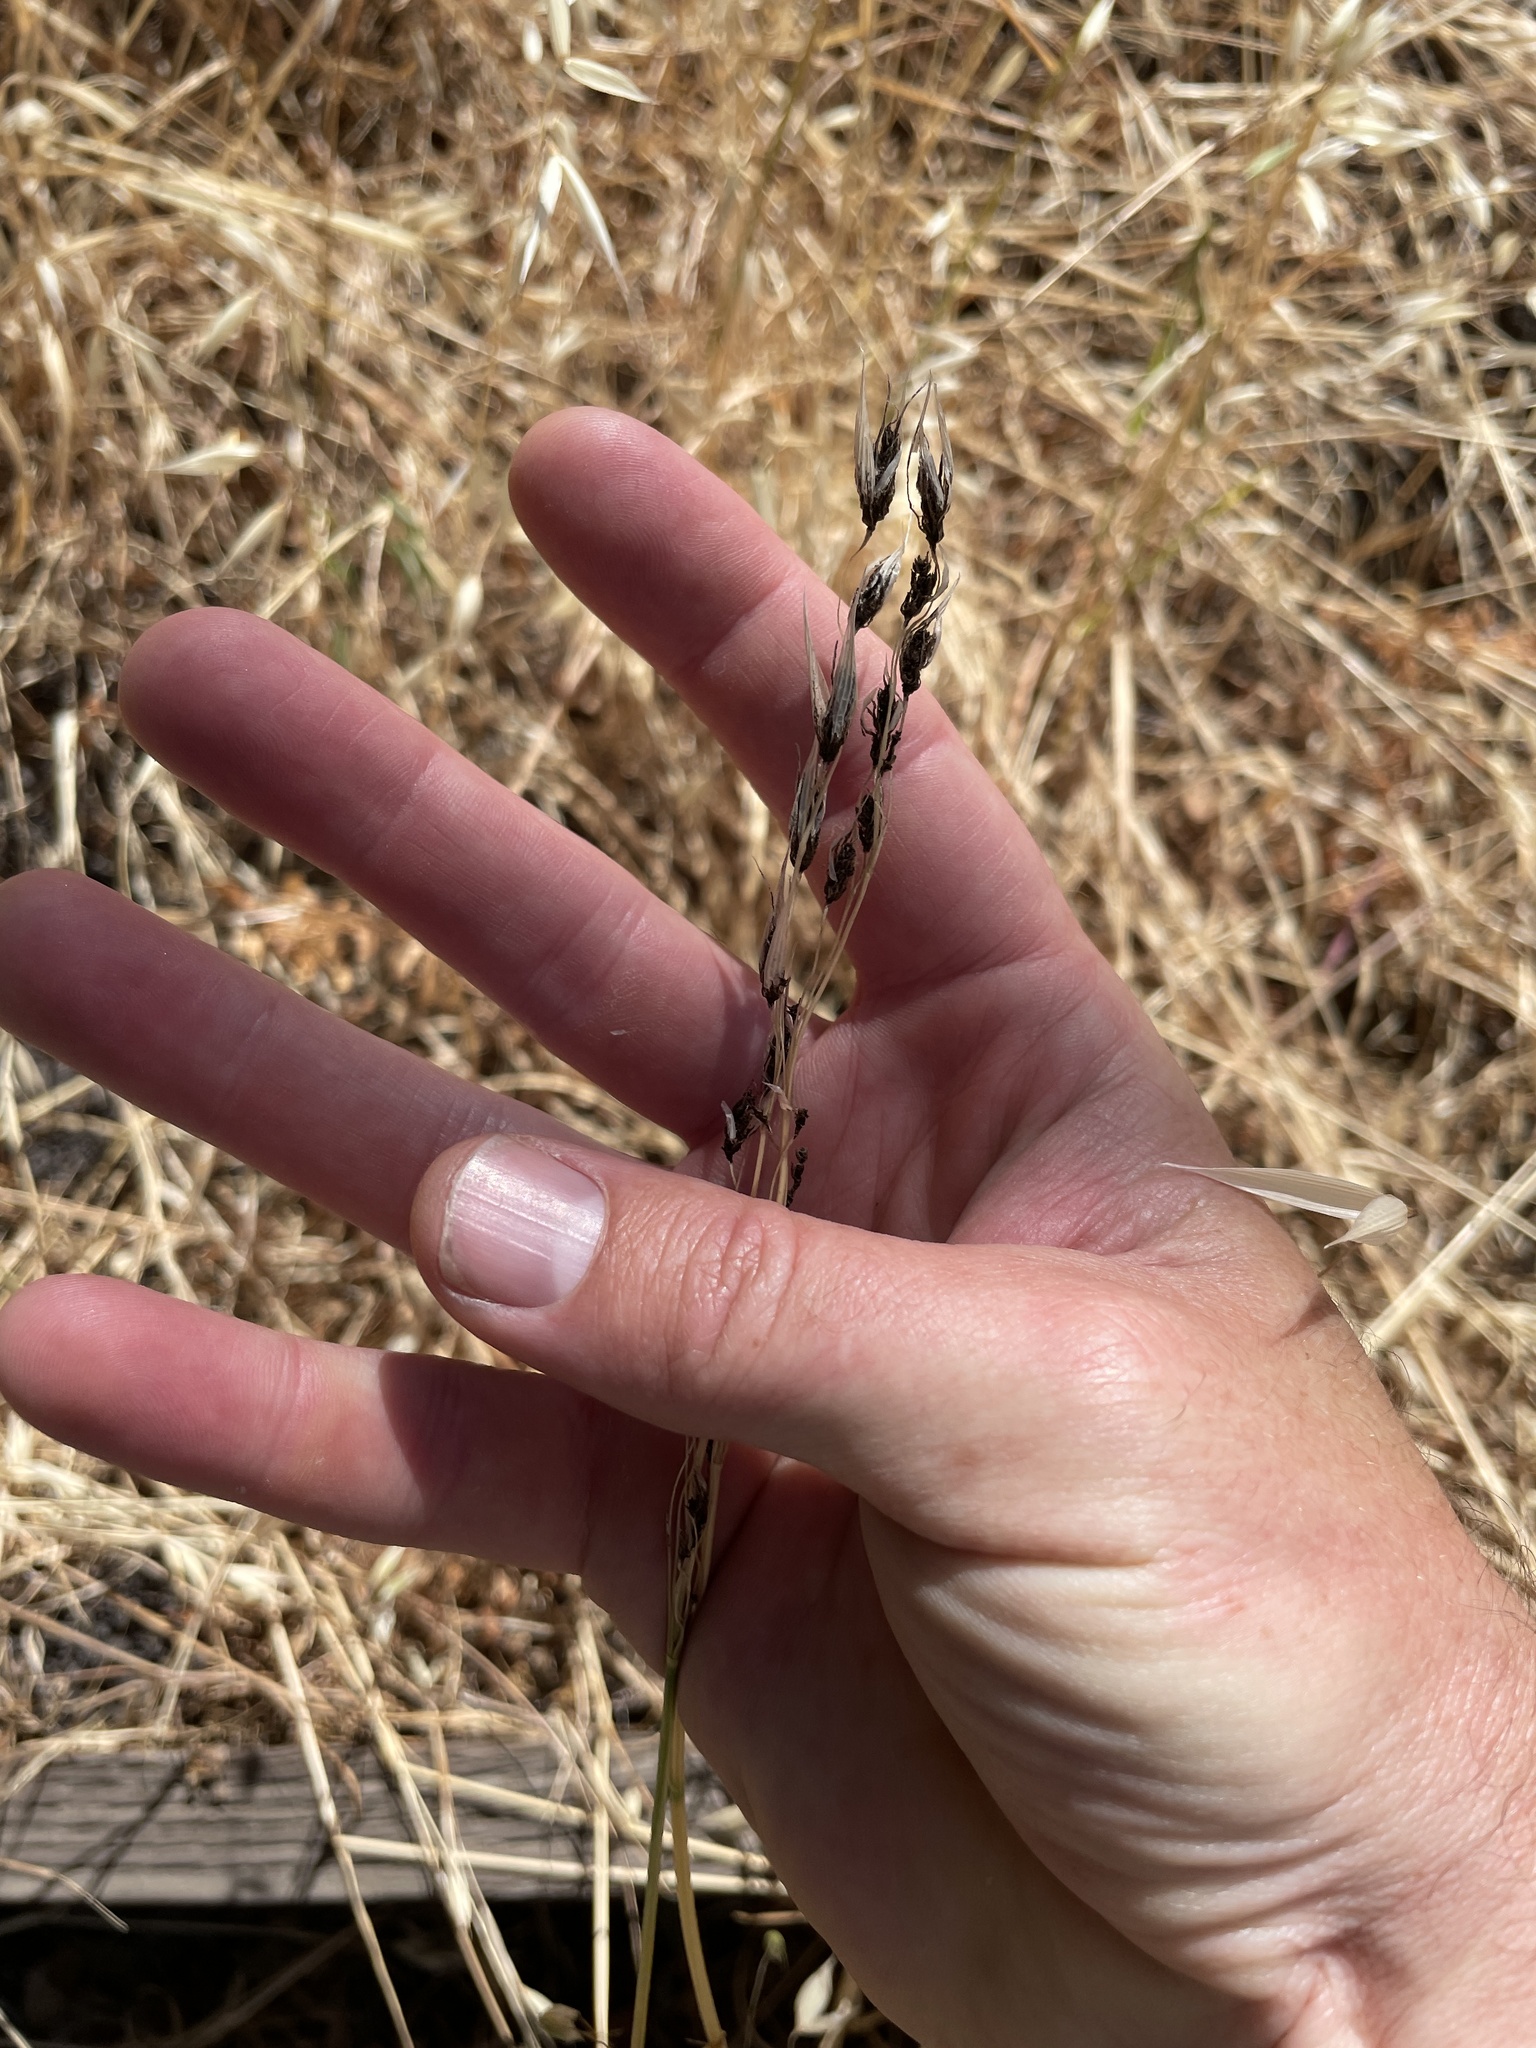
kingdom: Fungi
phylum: Basidiomycota
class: Ustilaginomycetes
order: Ustilaginales
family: Ustilaginaceae
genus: Ustilago
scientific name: Ustilago avenae
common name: Loose smut of oats & oat grass
